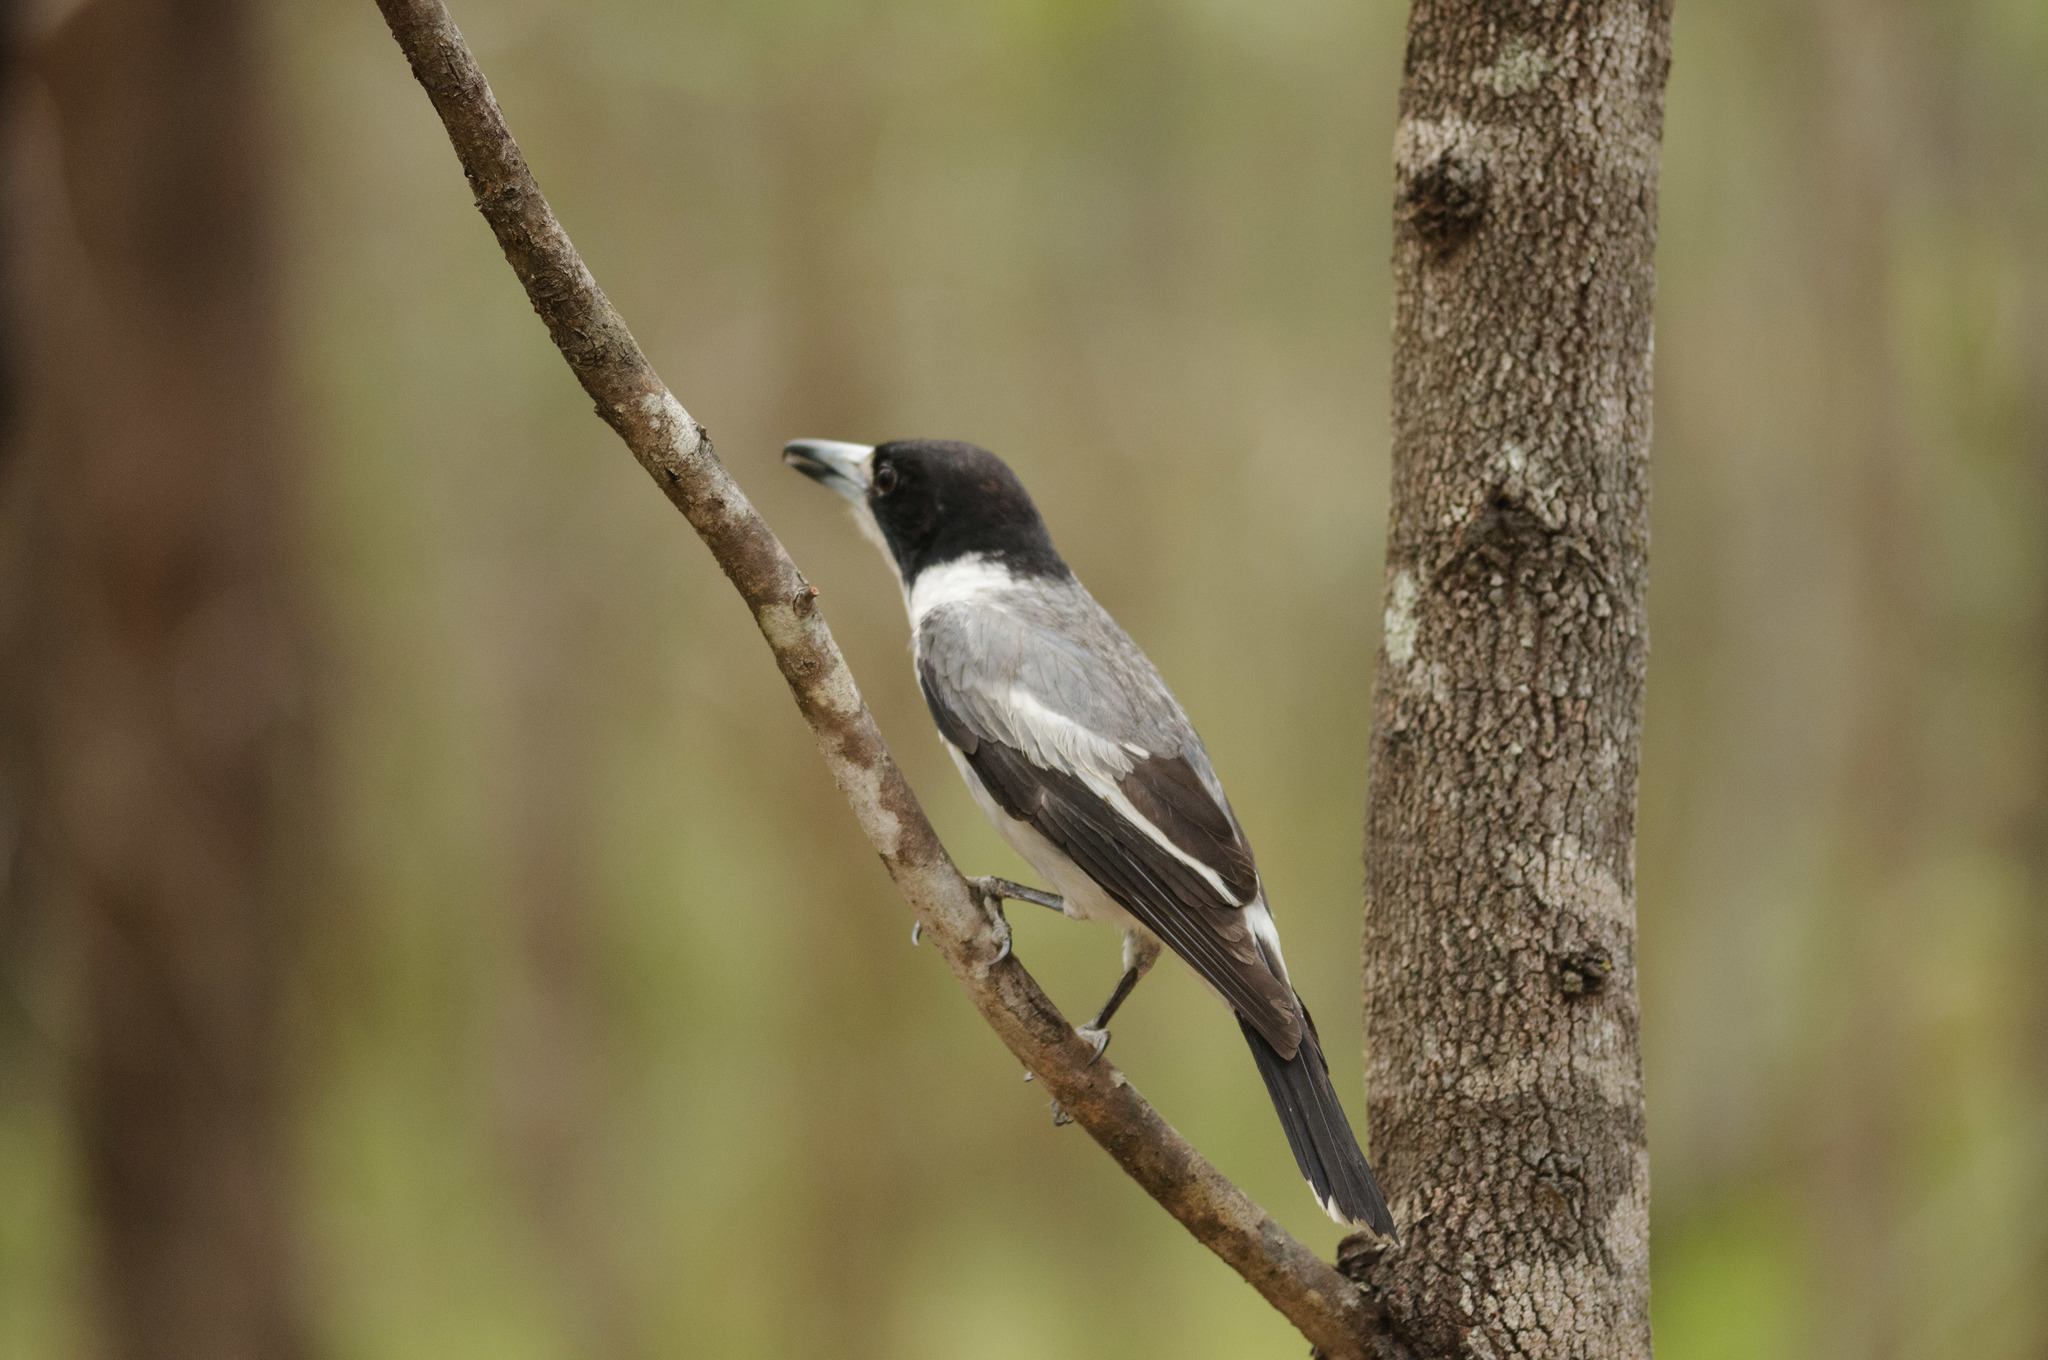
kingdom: Animalia
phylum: Chordata
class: Aves
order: Passeriformes
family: Cracticidae
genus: Cracticus
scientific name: Cracticus torquatus
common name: Grey butcherbird
